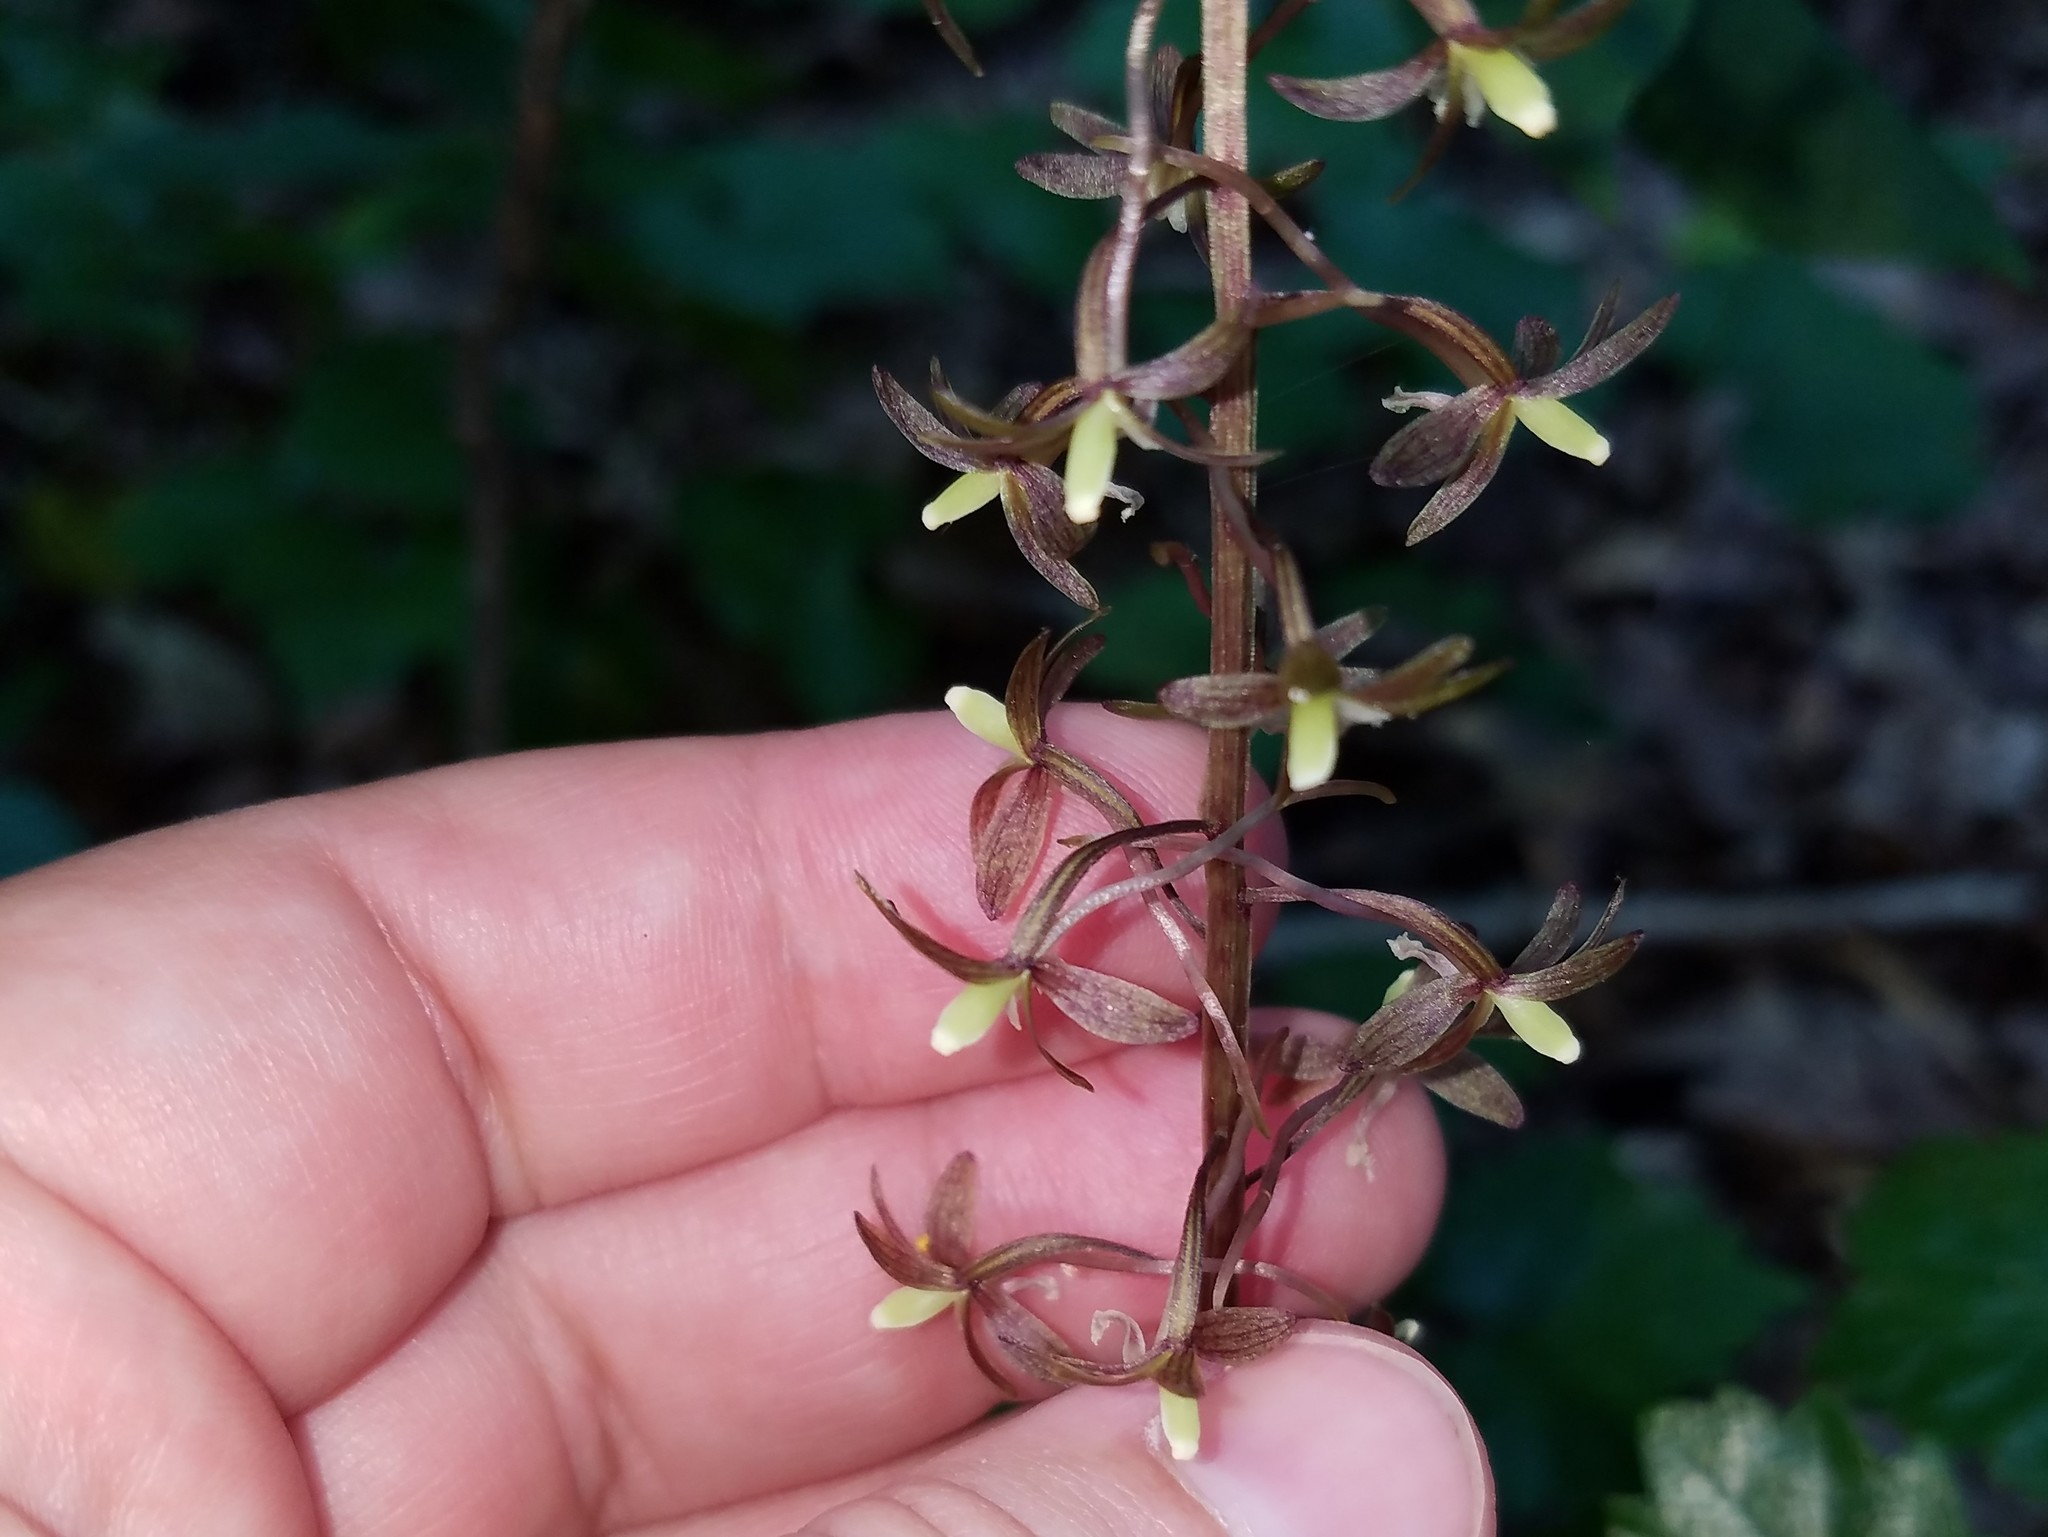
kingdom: Plantae
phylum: Tracheophyta
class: Liliopsida
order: Asparagales
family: Orchidaceae
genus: Tipularia
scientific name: Tipularia discolor
